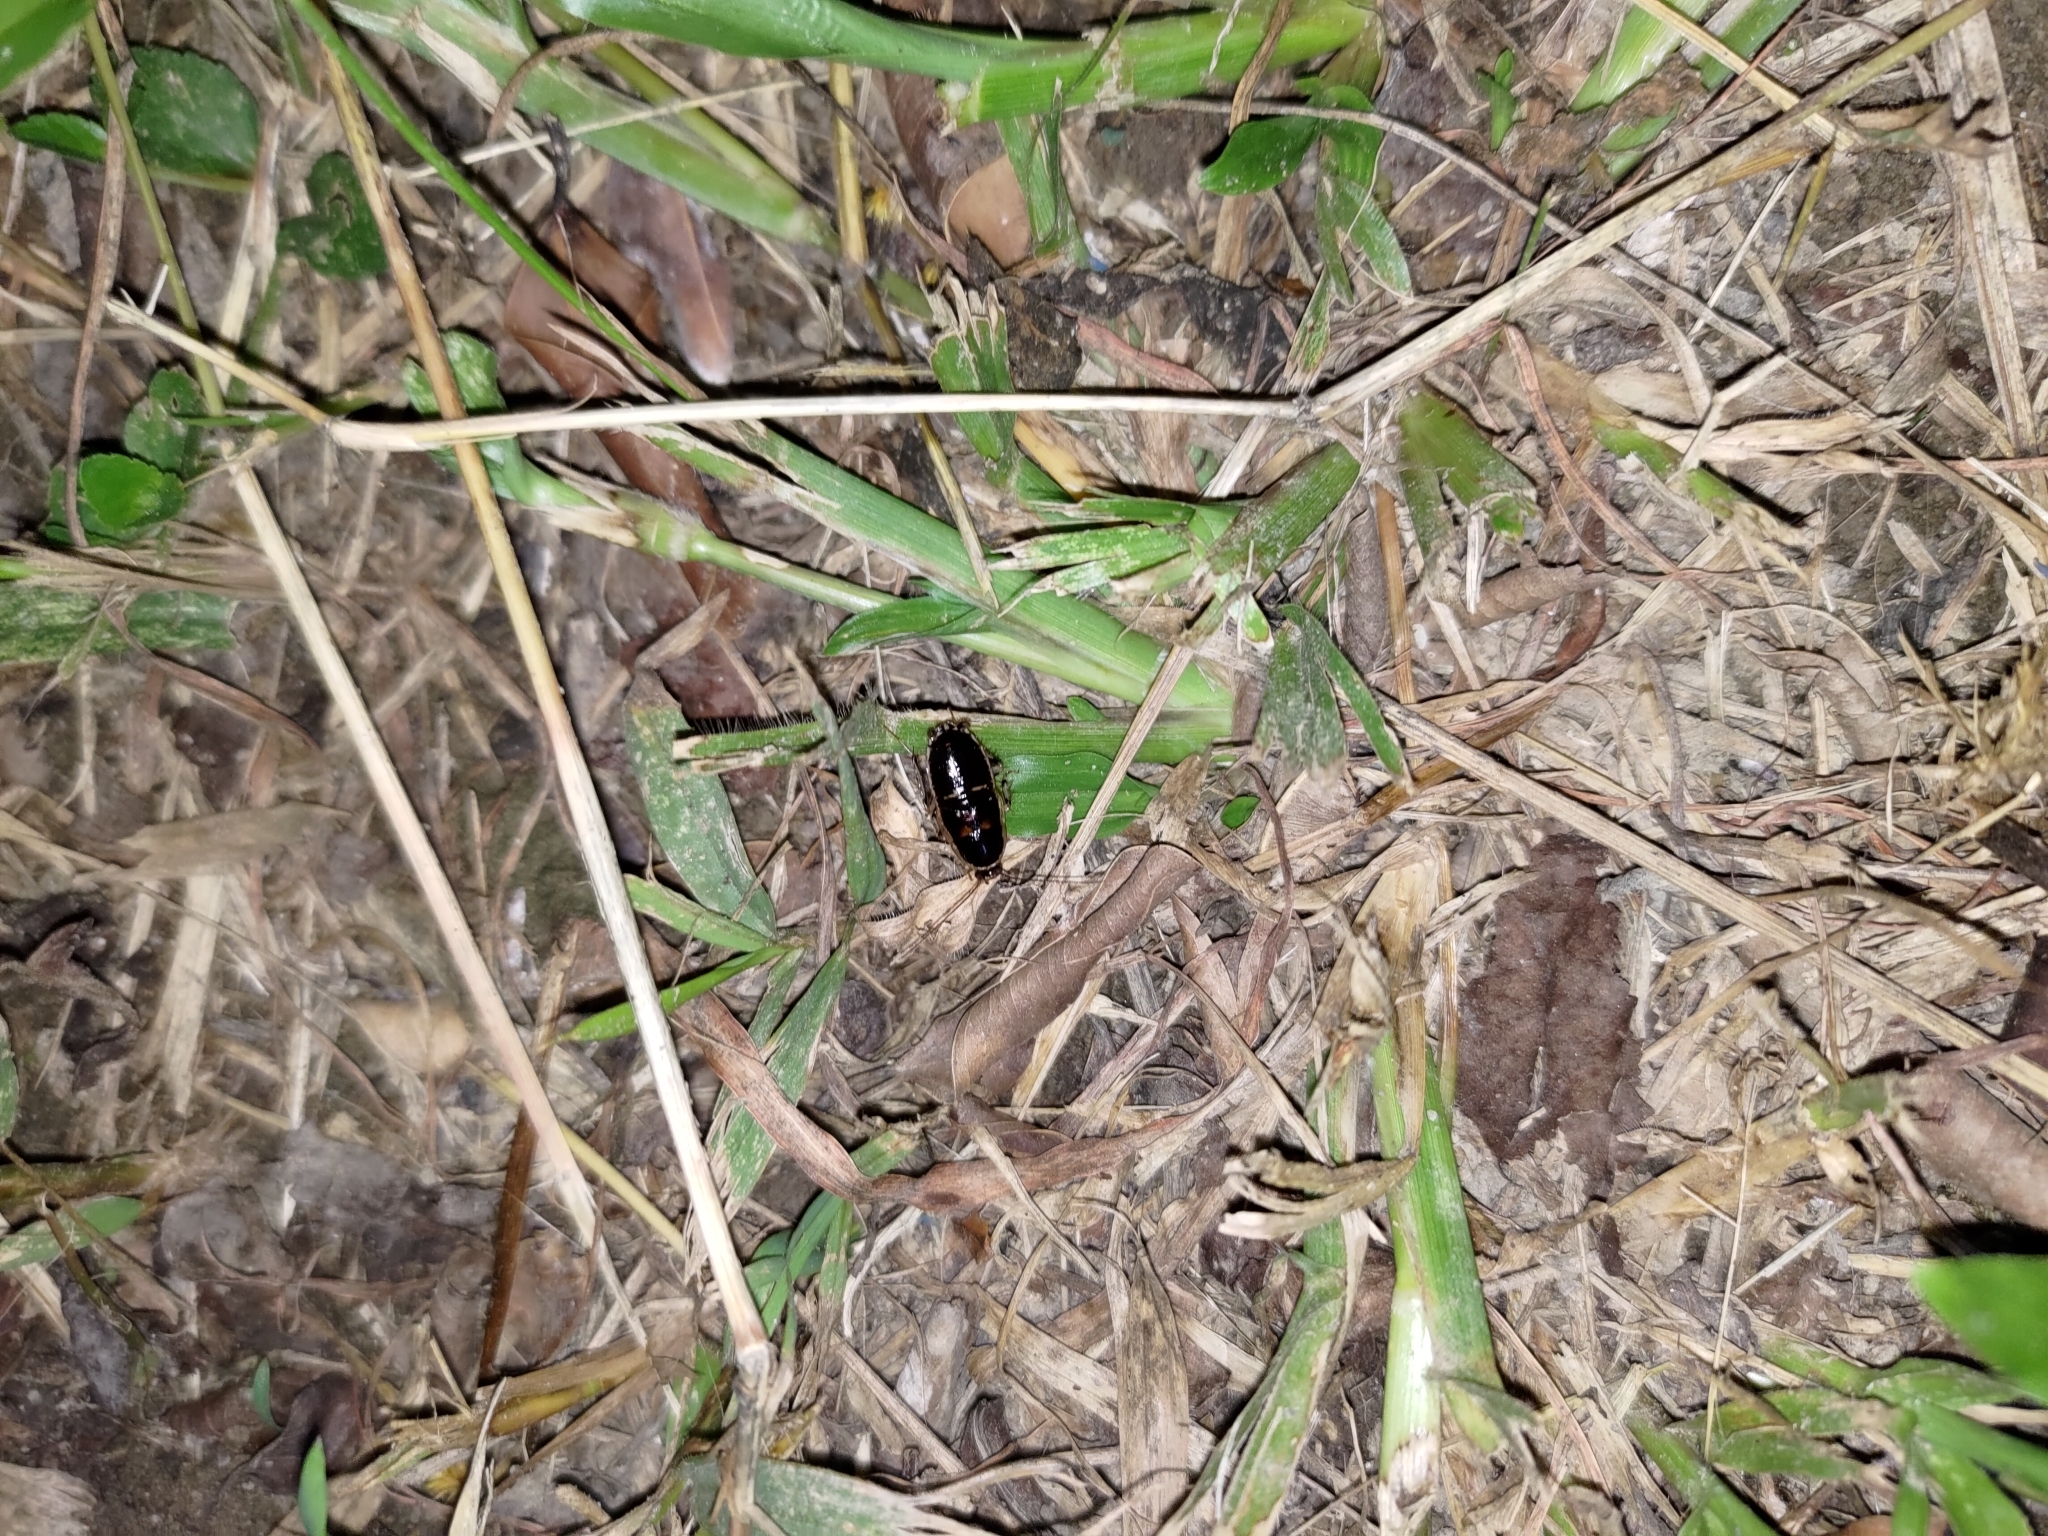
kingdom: Animalia
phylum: Arthropoda
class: Insecta
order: Blattodea
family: Ectobiidae
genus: Lobopterella
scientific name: Lobopterella dimidiatipes
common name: Cockroach
